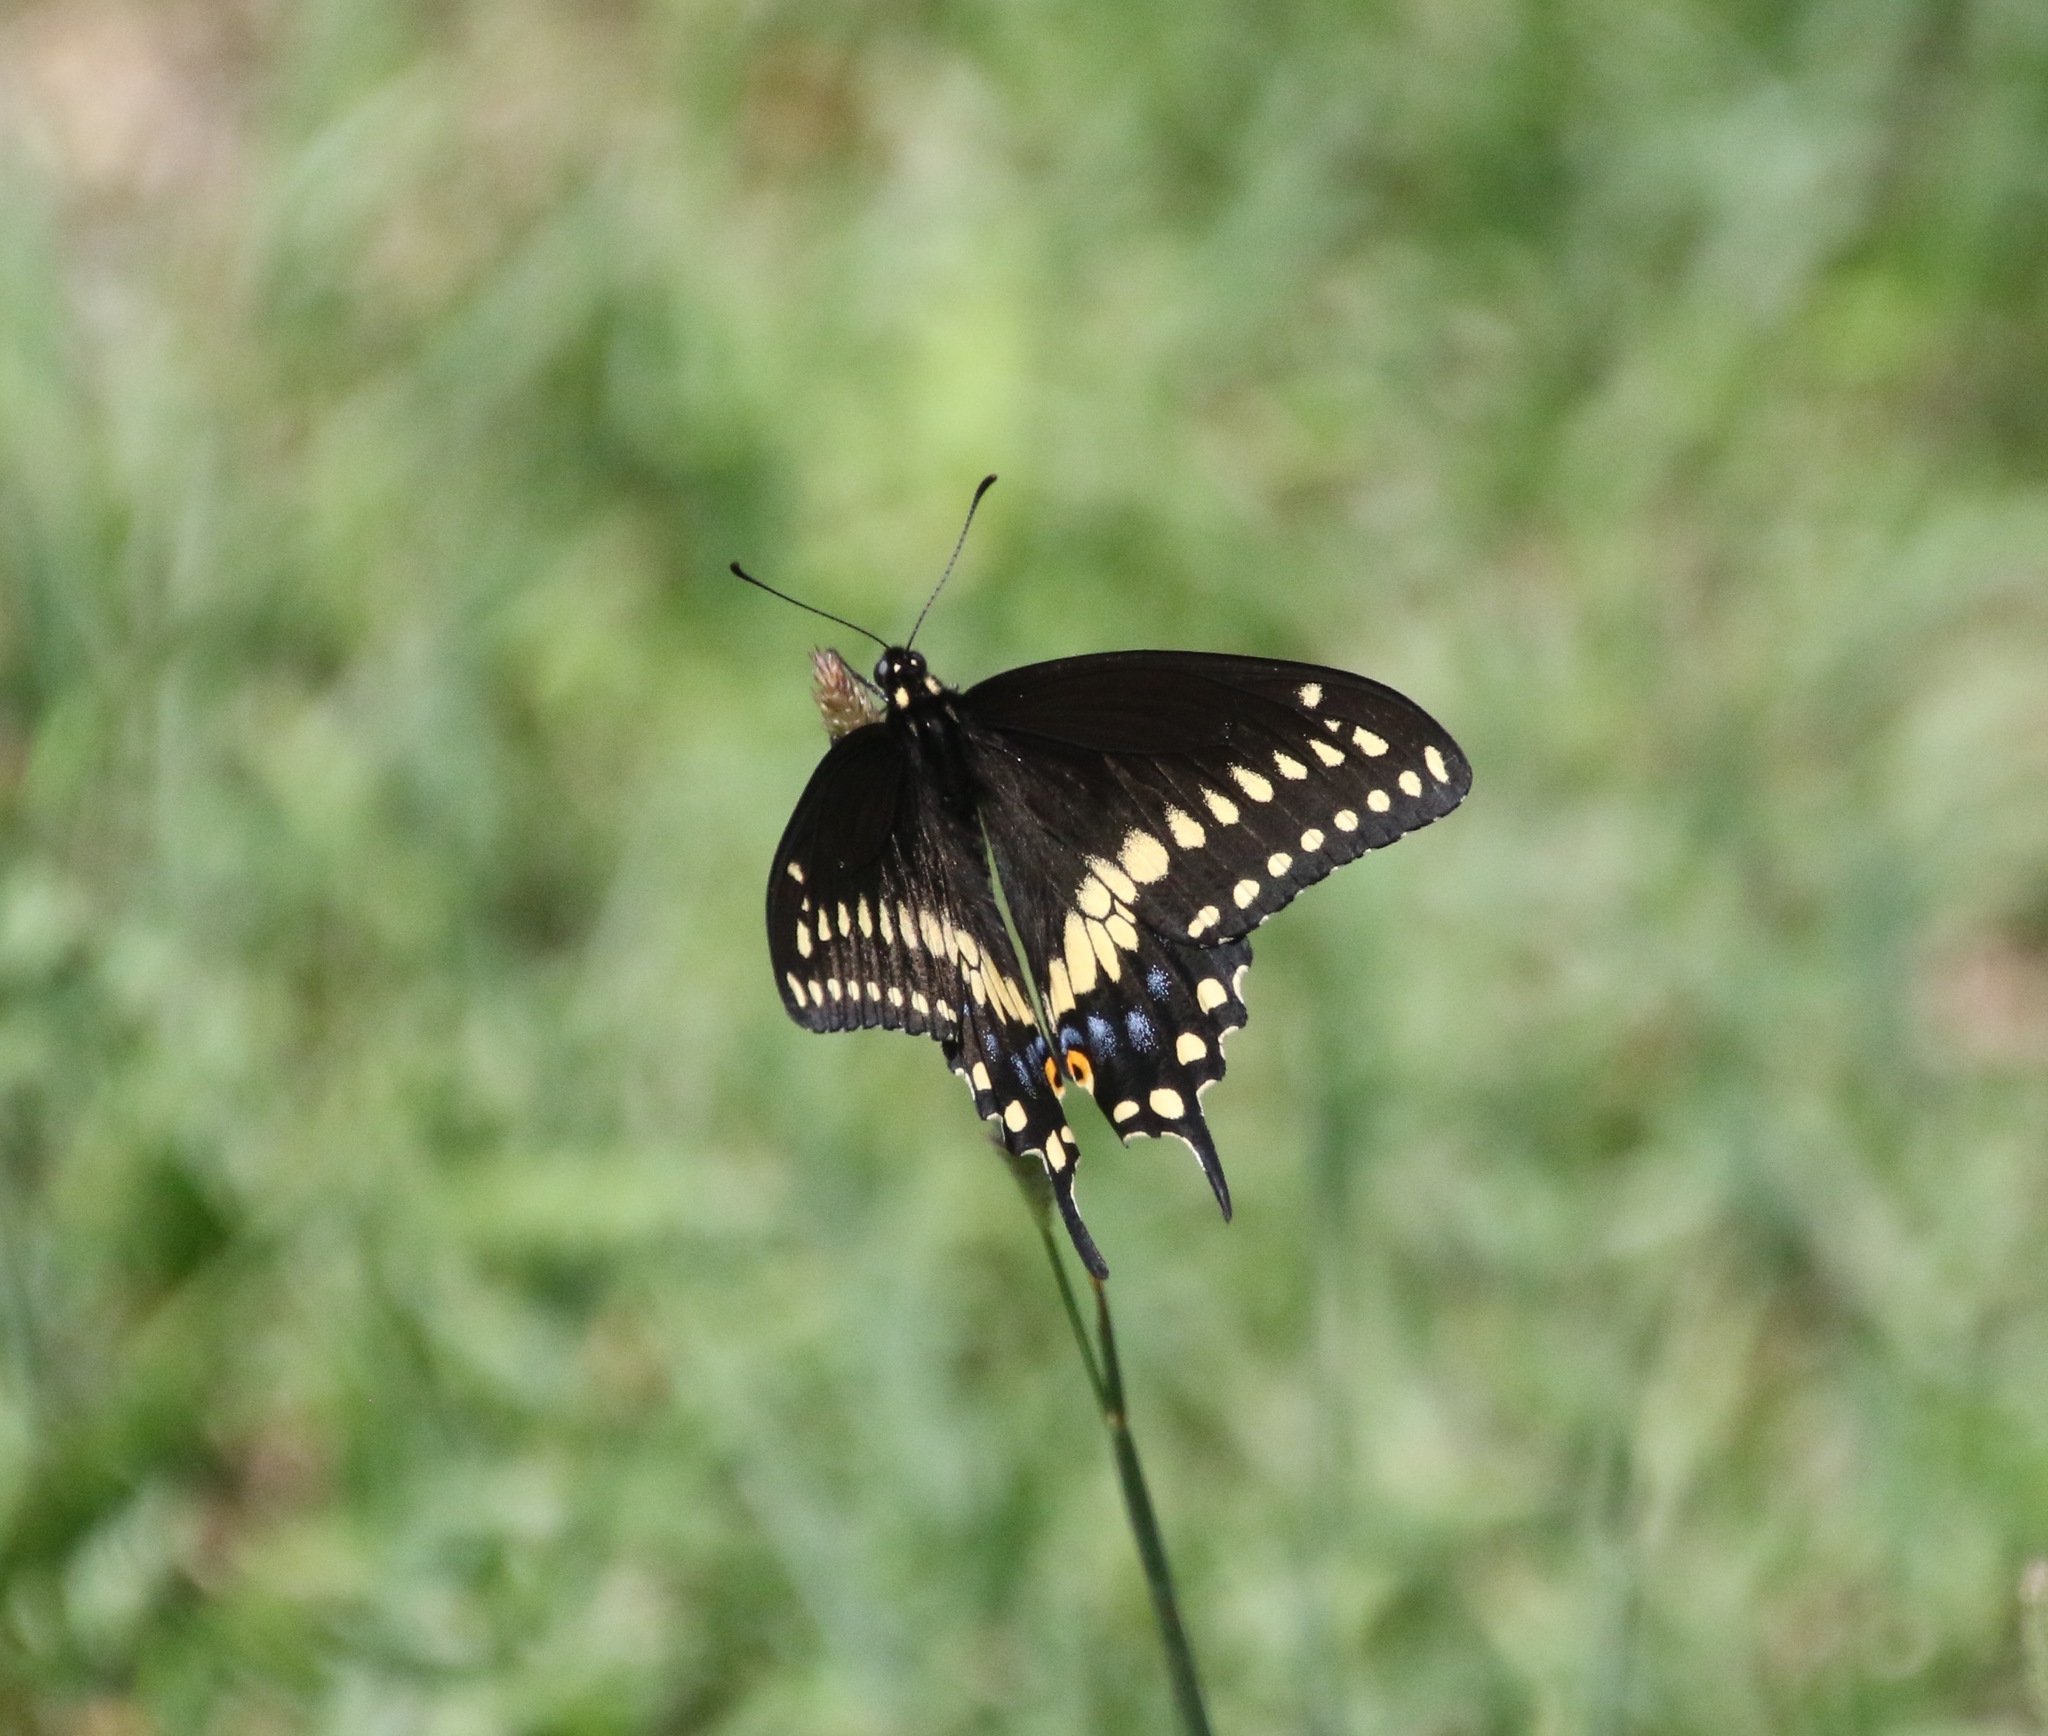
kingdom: Animalia
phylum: Arthropoda
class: Insecta
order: Lepidoptera
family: Papilionidae
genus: Papilio
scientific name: Papilio polyxenes
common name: Black swallowtail
